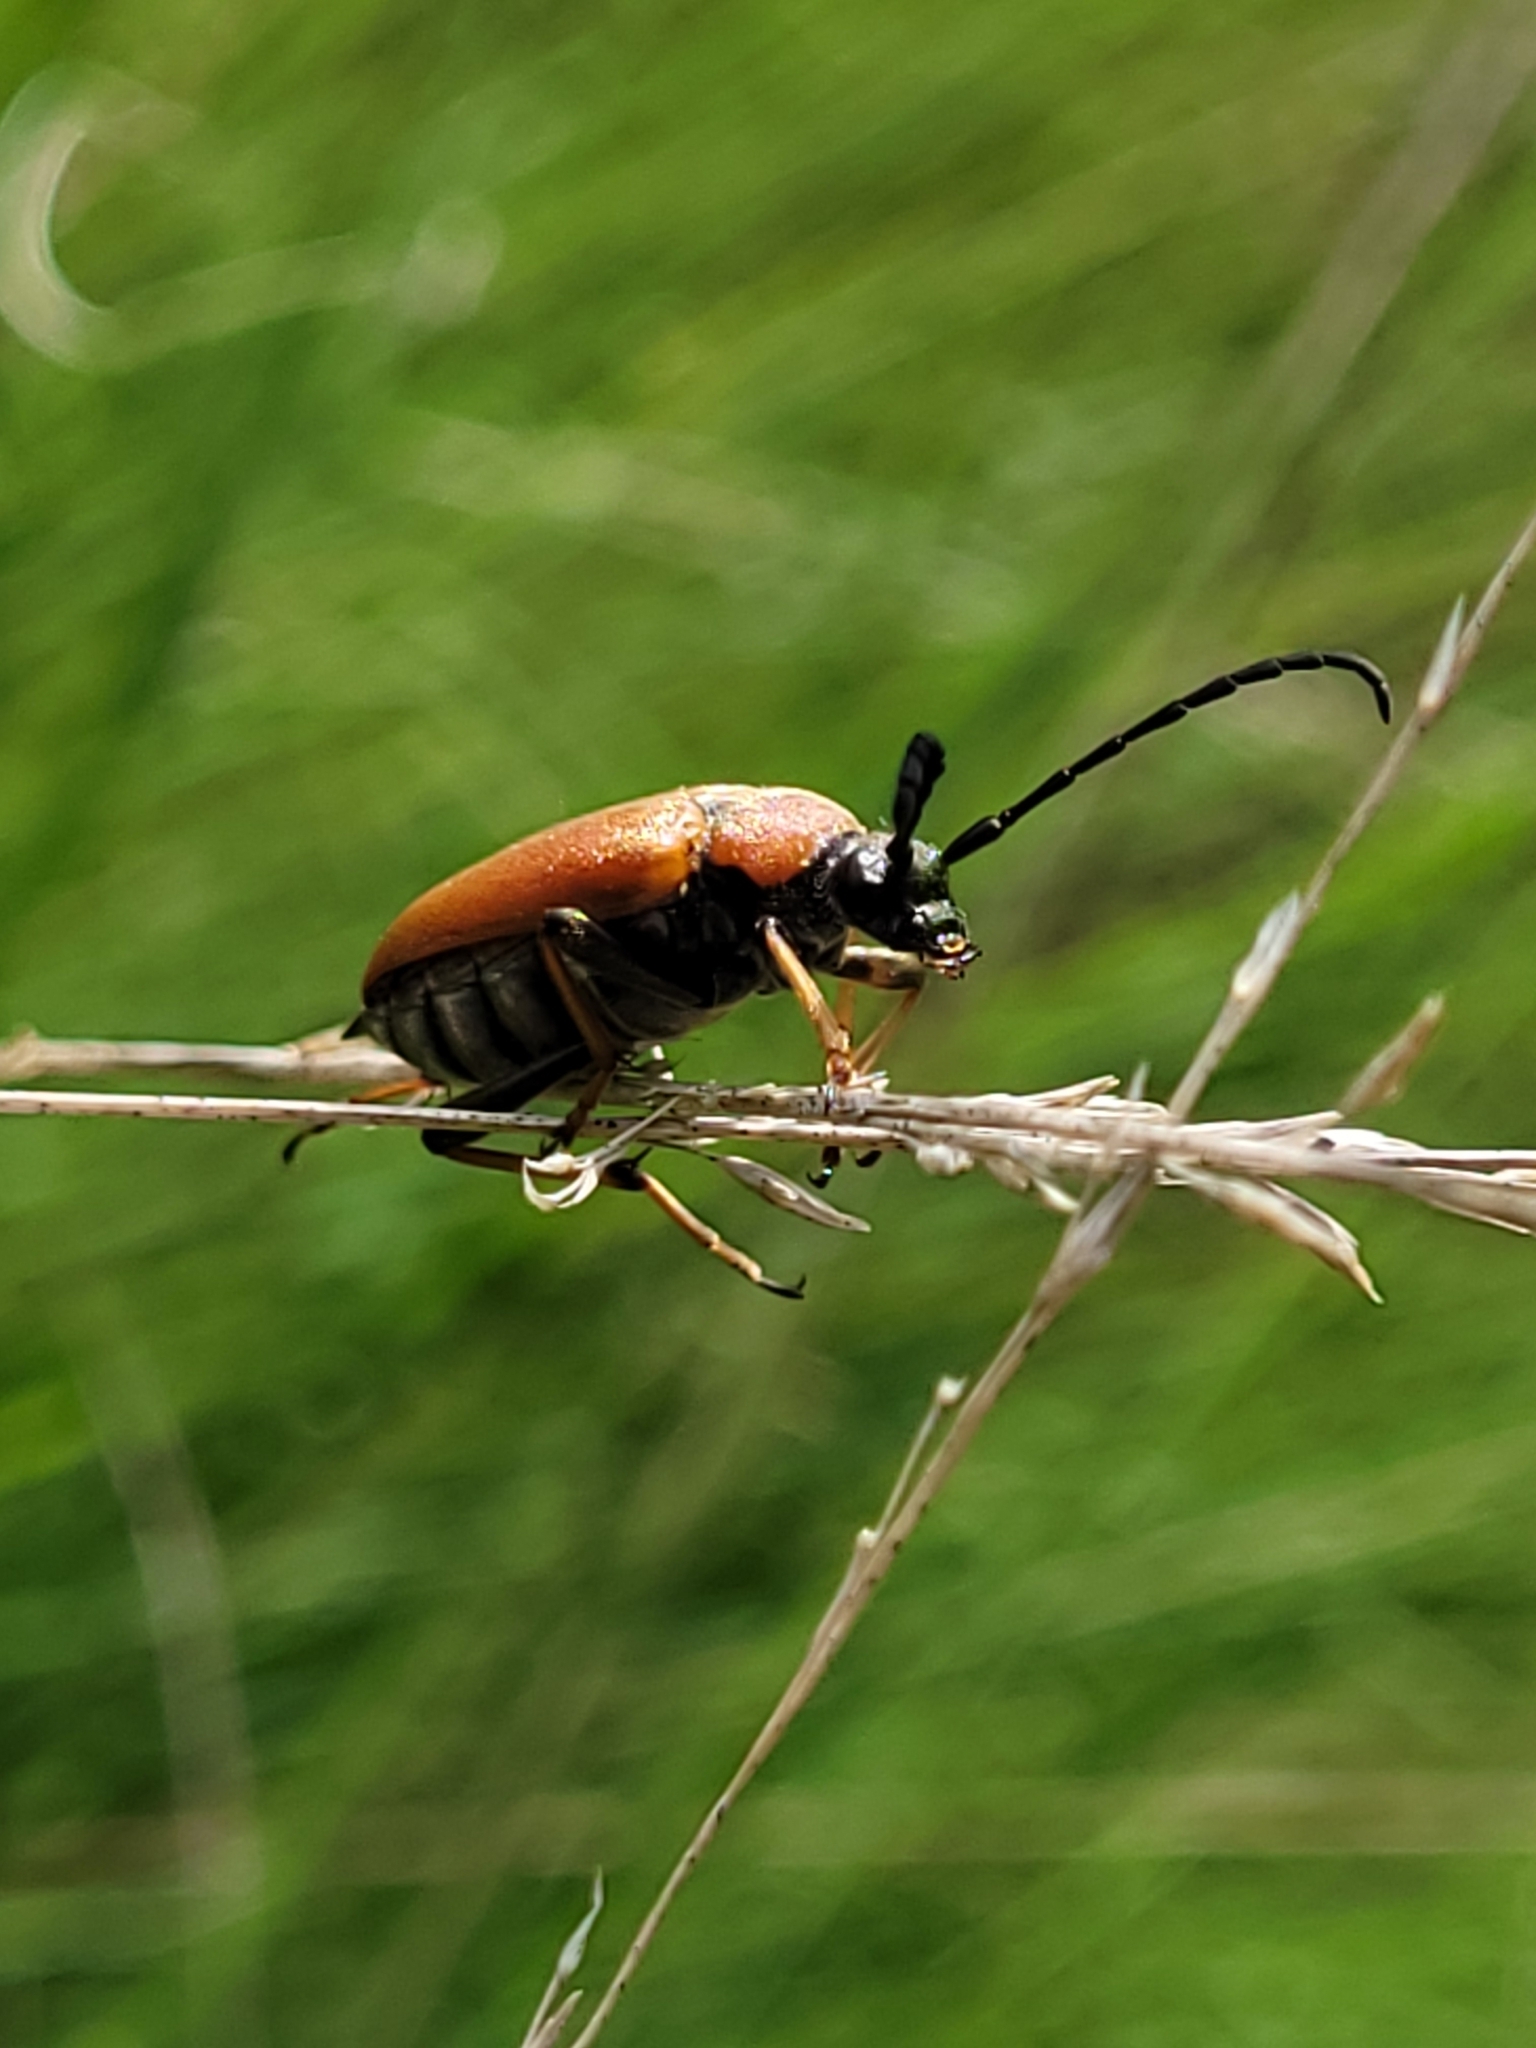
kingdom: Animalia
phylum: Arthropoda
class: Insecta
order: Coleoptera
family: Cerambycidae
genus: Stictoleptura
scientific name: Stictoleptura rubra
